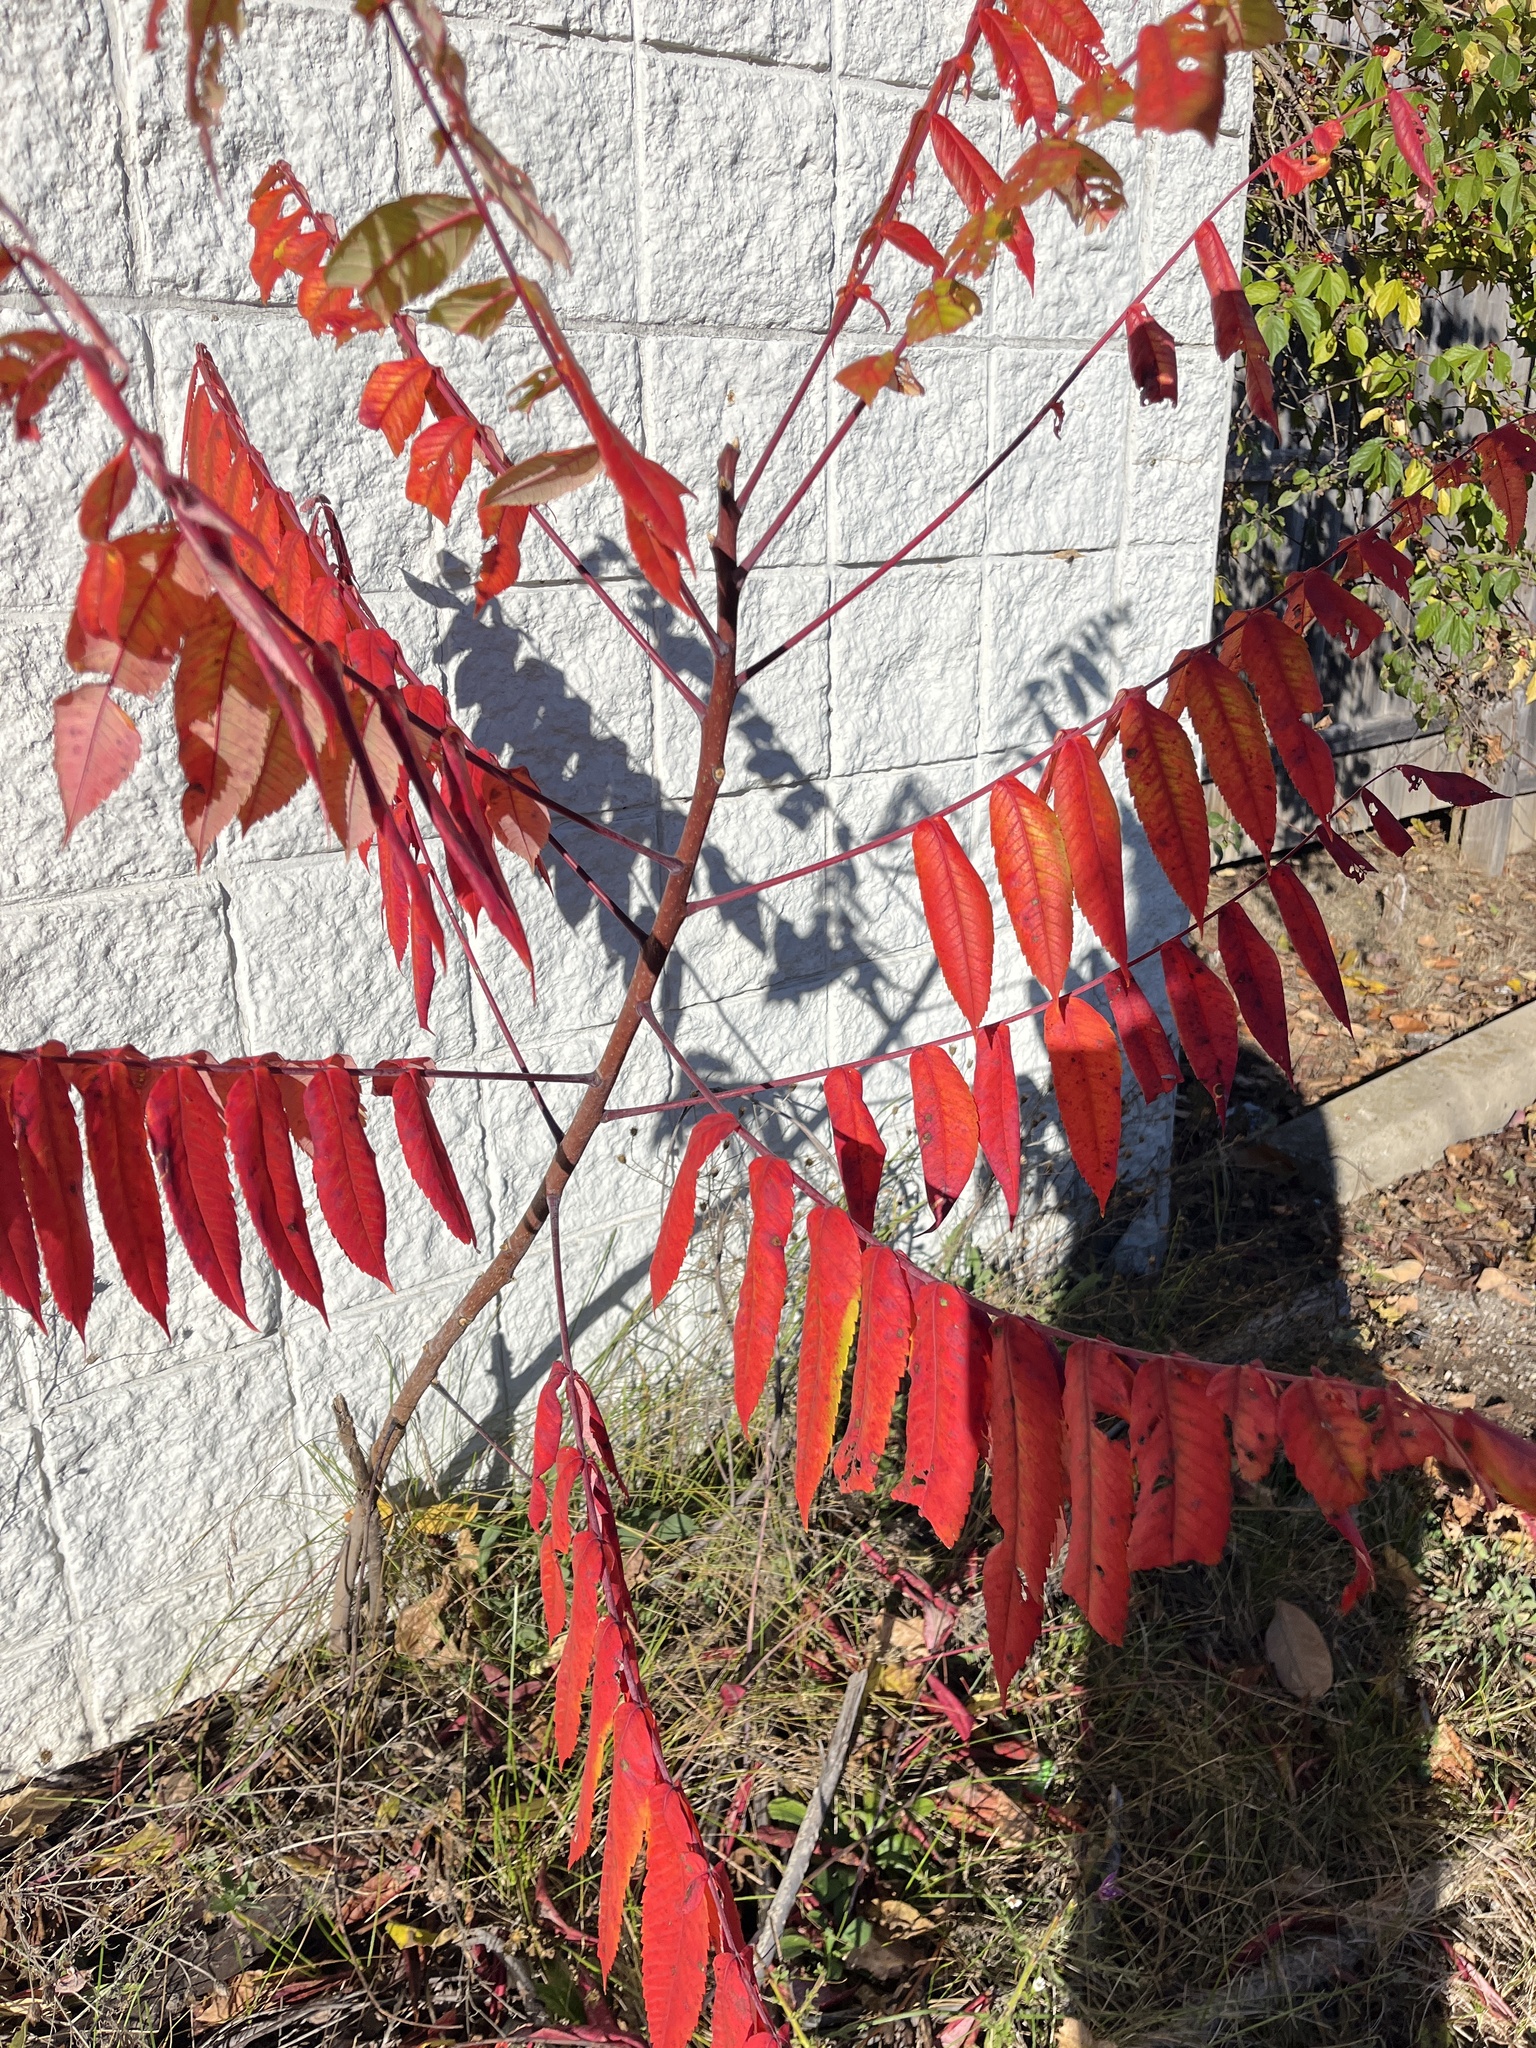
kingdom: Plantae
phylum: Tracheophyta
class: Magnoliopsida
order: Sapindales
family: Anacardiaceae
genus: Rhus
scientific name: Rhus typhina
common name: Staghorn sumac
